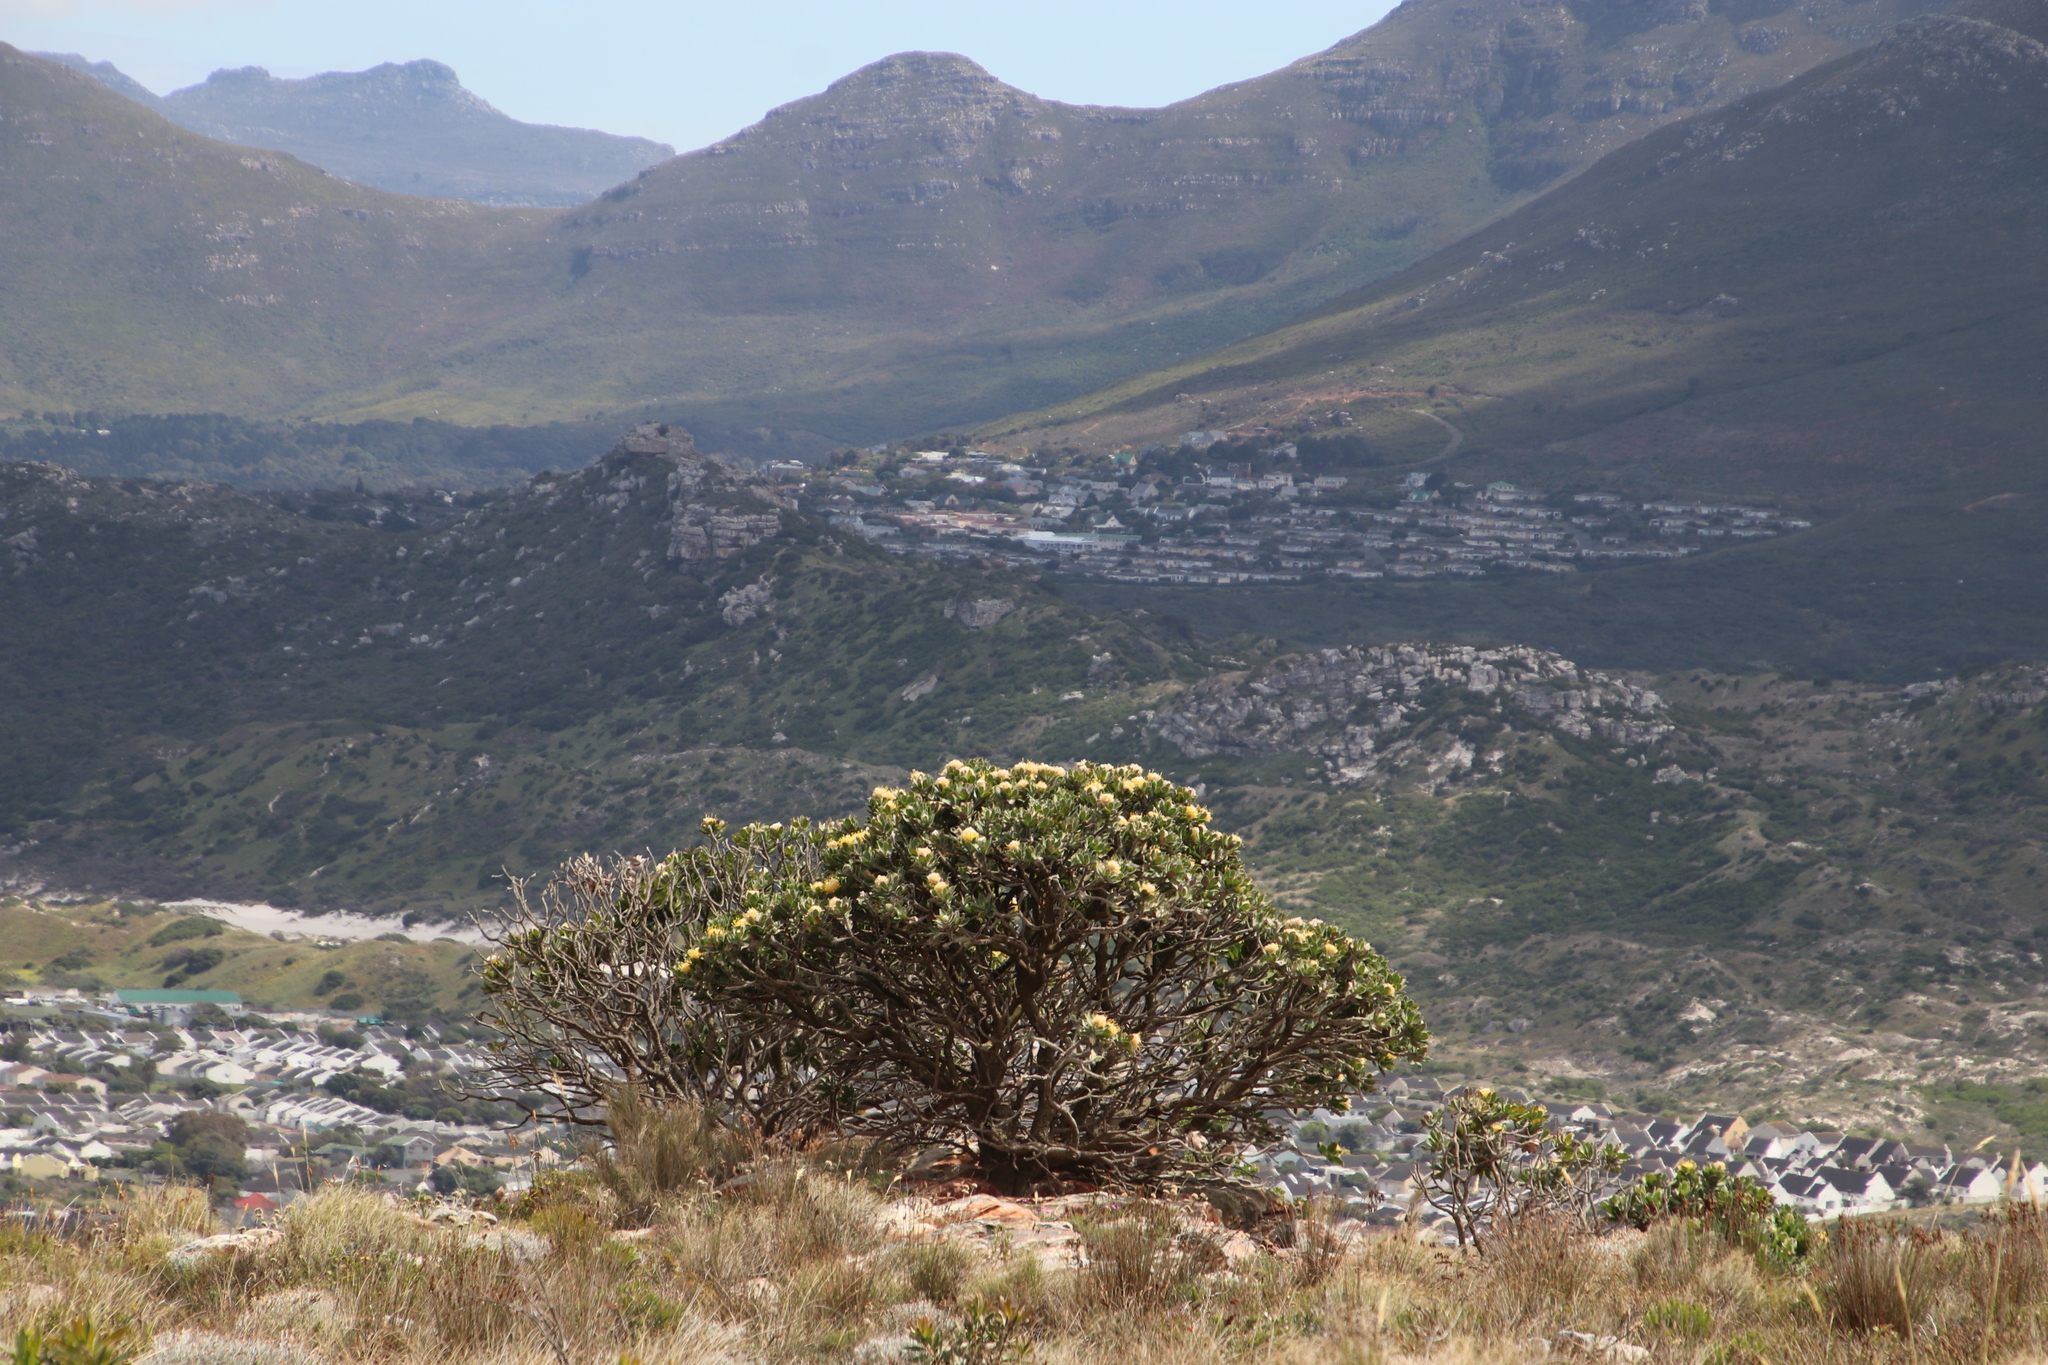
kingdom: Plantae
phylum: Tracheophyta
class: Magnoliopsida
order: Proteales
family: Proteaceae
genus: Leucospermum
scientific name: Leucospermum conocarpodendron
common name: Tree pincushion
